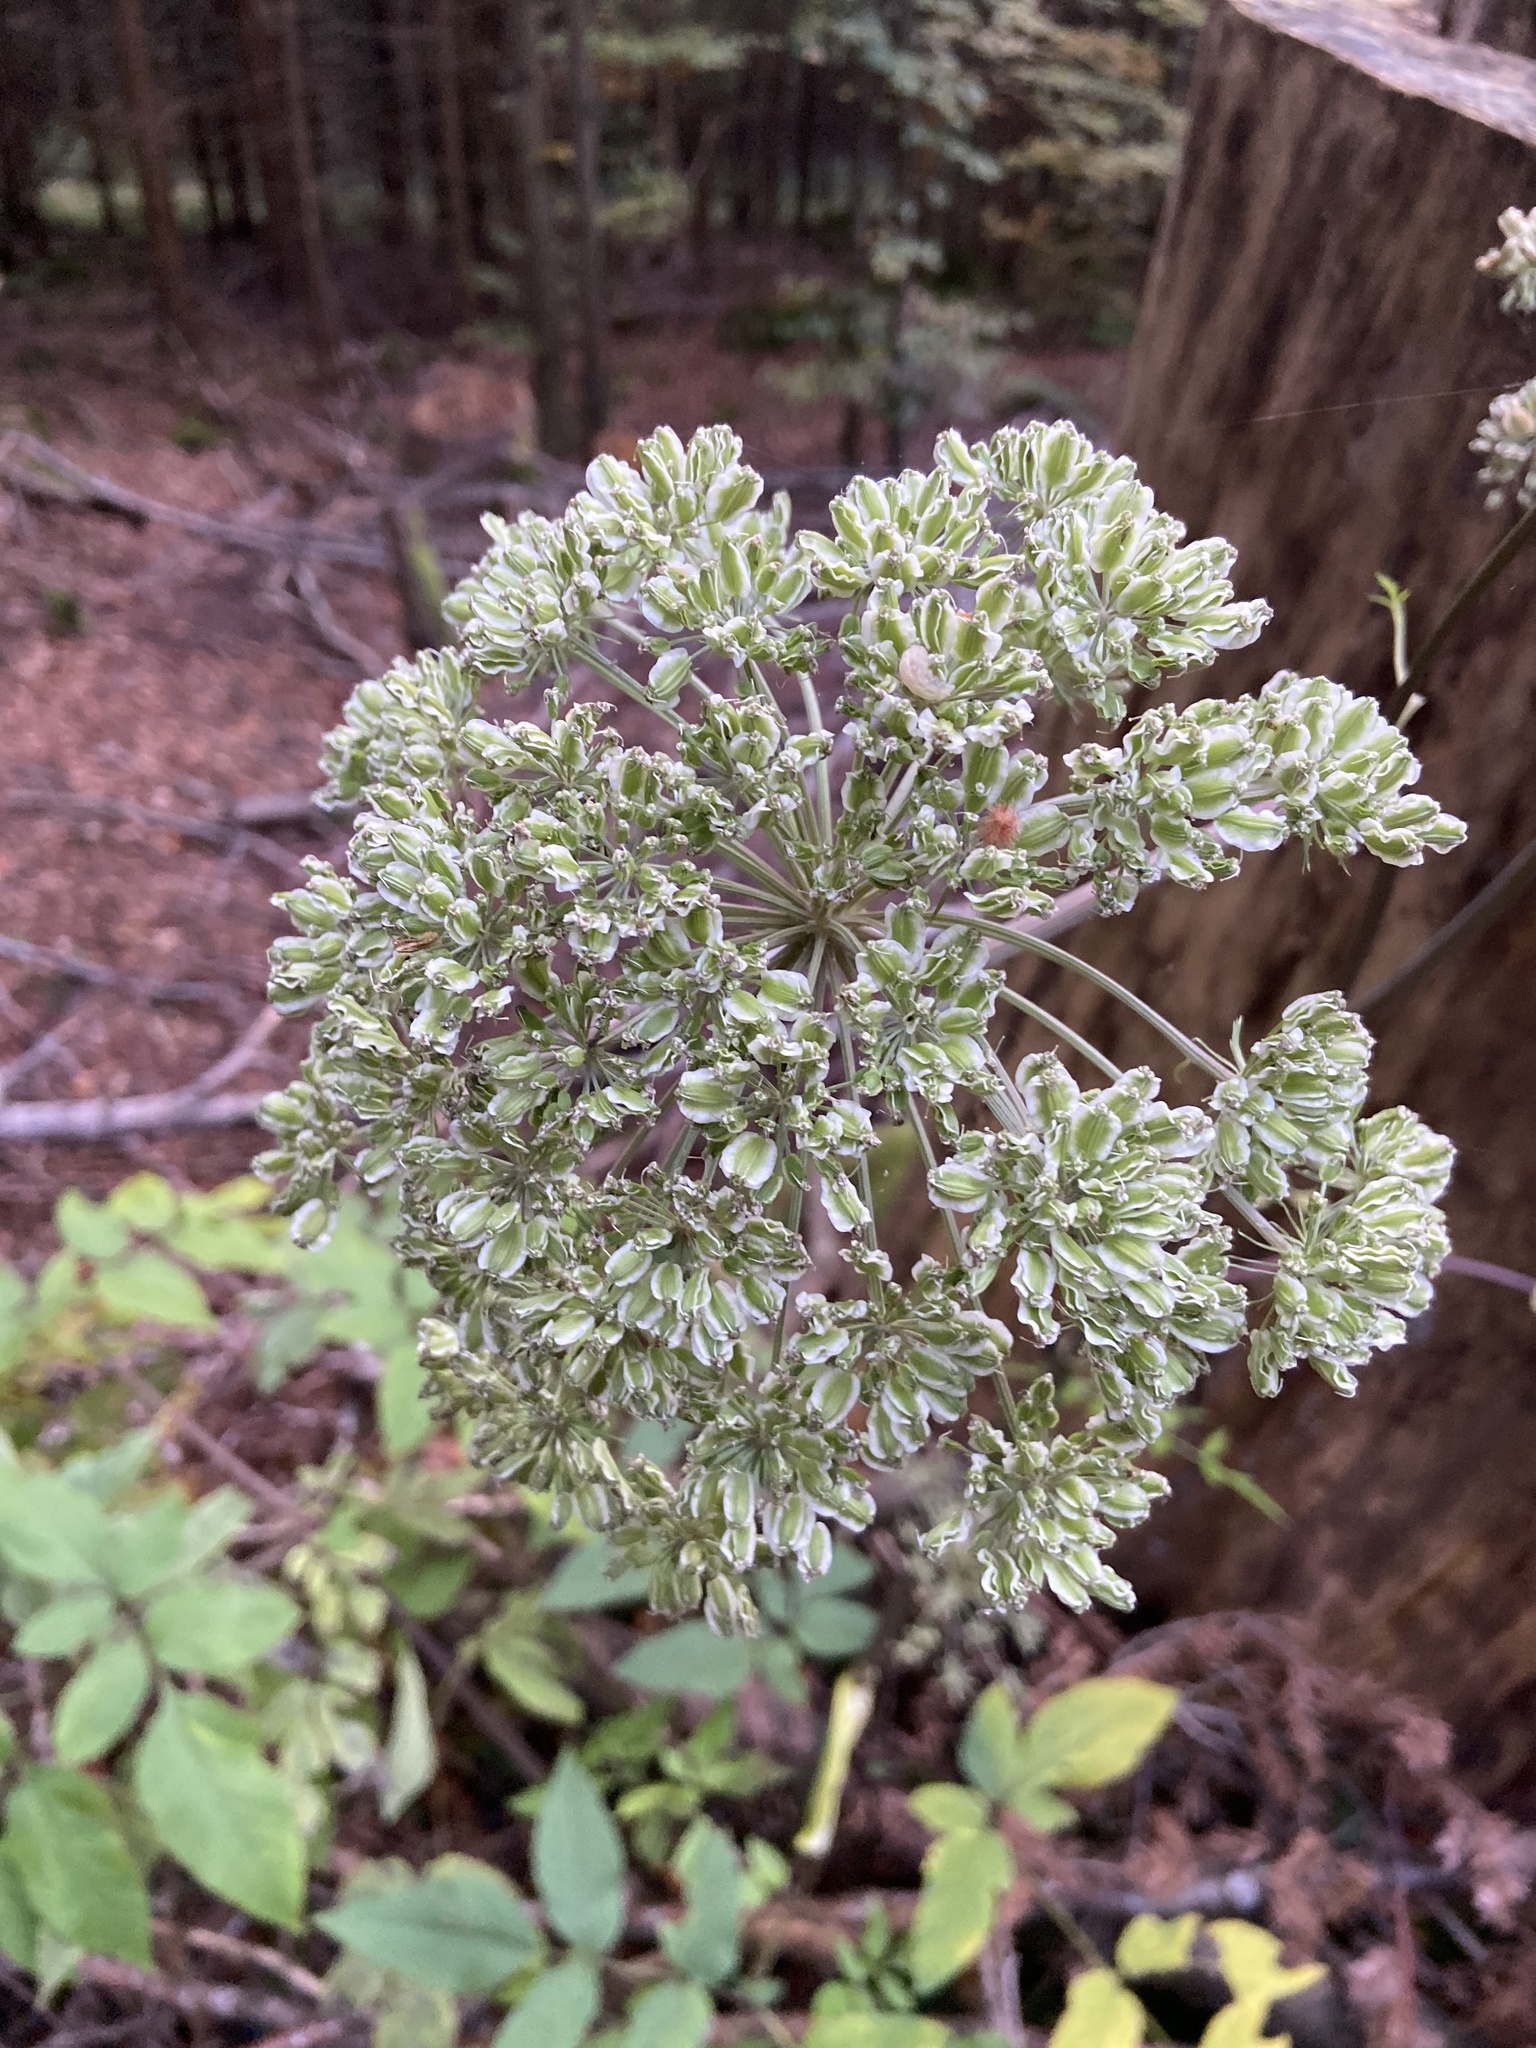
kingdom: Plantae
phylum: Tracheophyta
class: Magnoliopsida
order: Apiales
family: Apiaceae
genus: Angelica
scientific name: Angelica sylvestris
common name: Wild angelica
